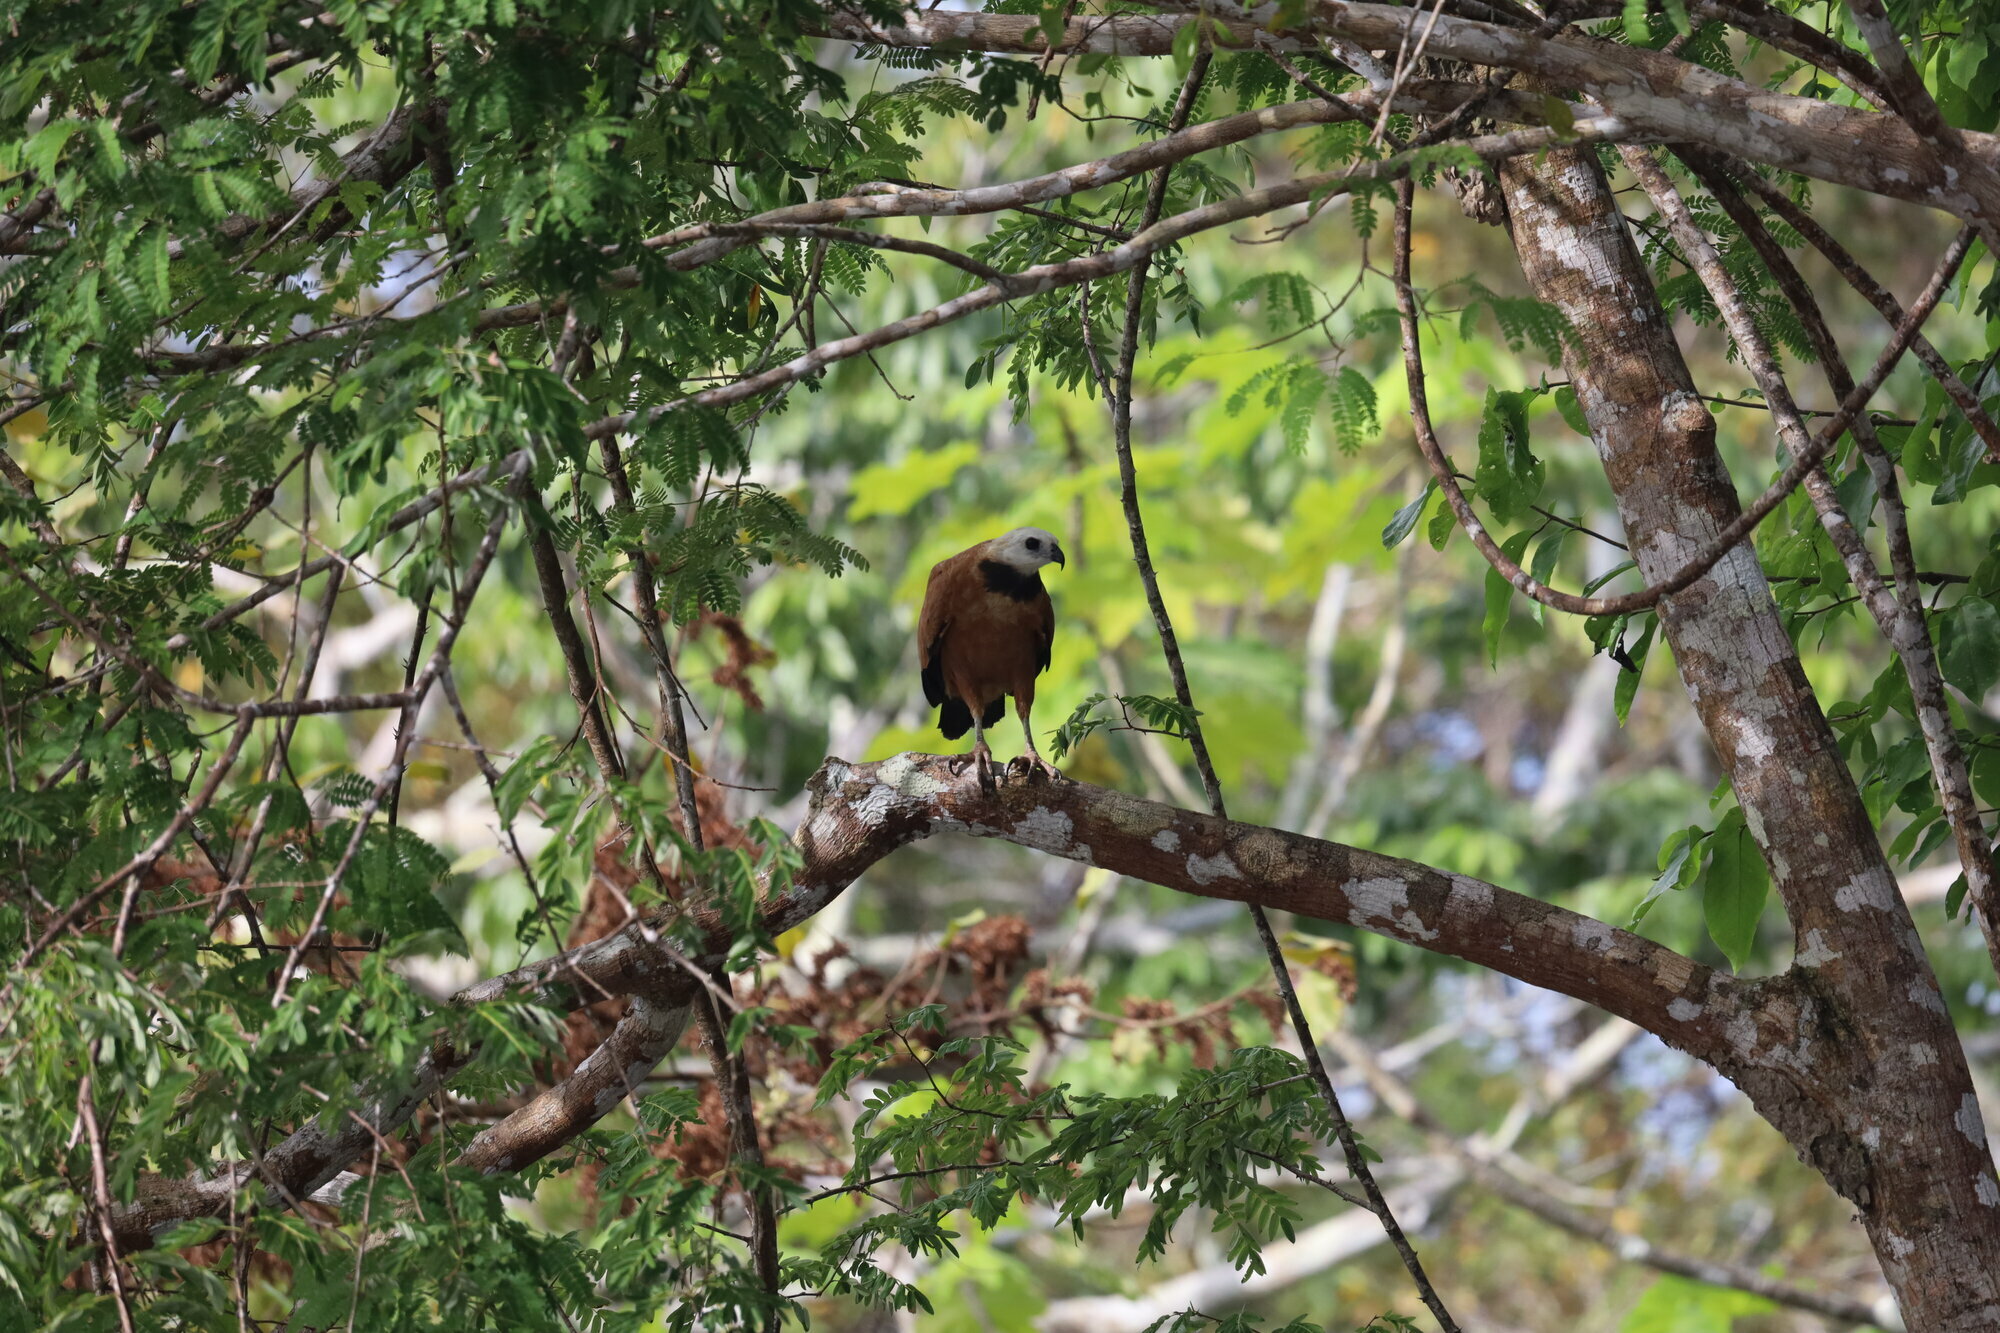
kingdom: Animalia
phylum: Chordata
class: Aves
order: Accipitriformes
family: Accipitridae
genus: Busarellus
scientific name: Busarellus nigricollis
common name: Black-collared hawk
